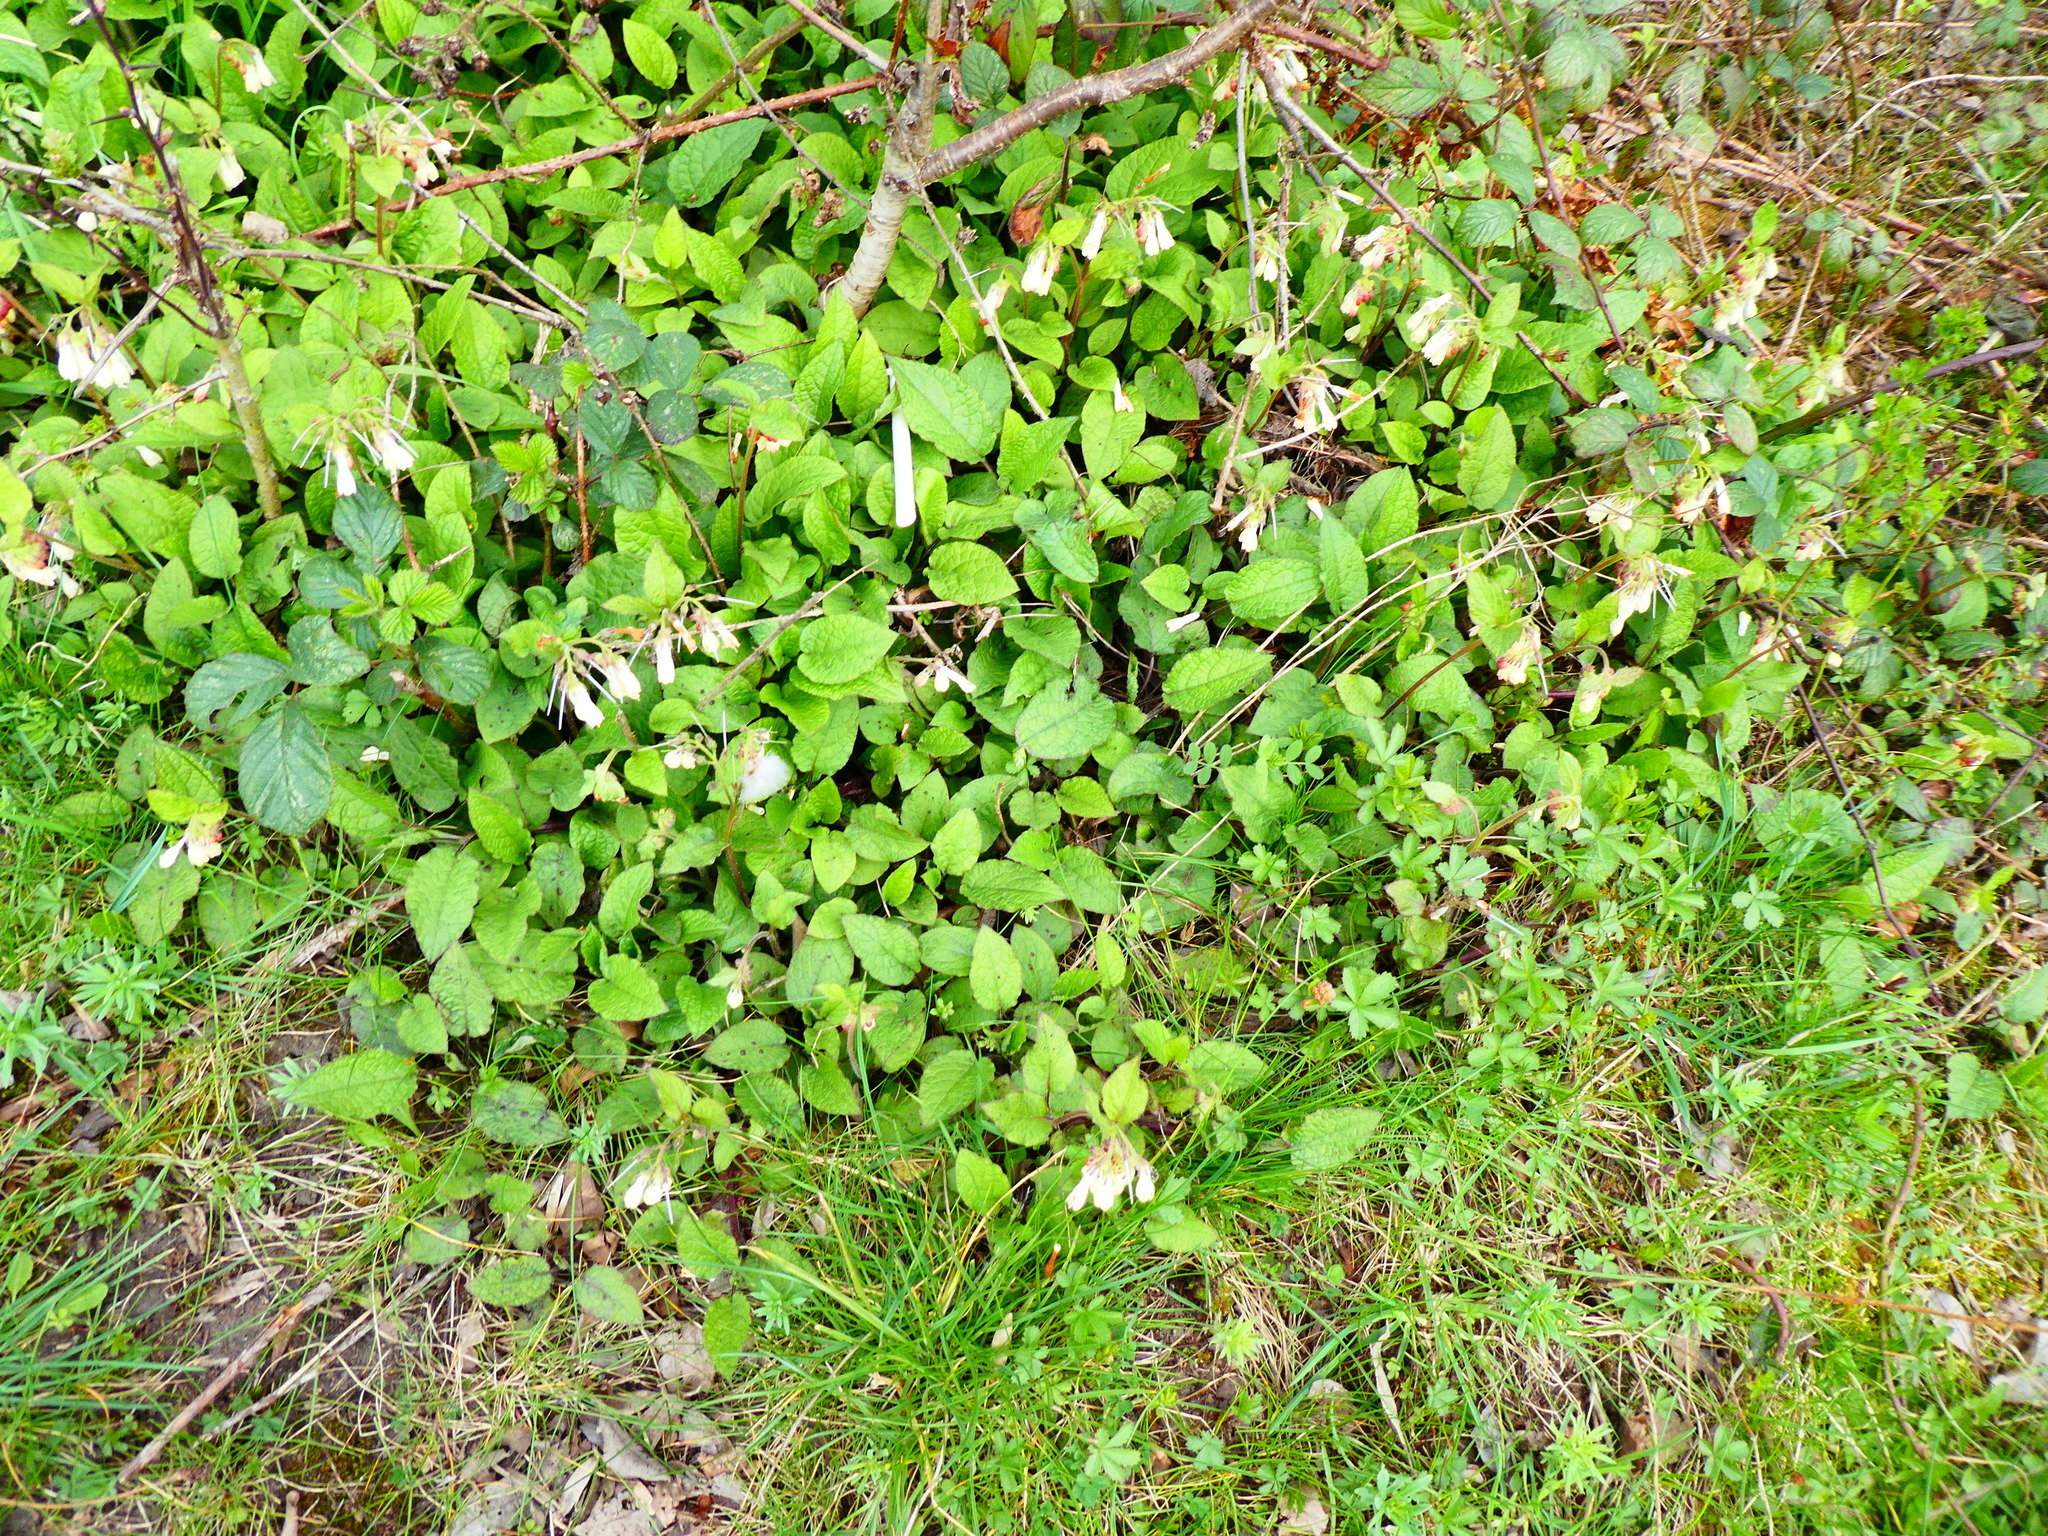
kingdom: Plantae
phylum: Tracheophyta
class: Magnoliopsida
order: Boraginales
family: Boraginaceae
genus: Symphytum
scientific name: Symphytum grandiflorum
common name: Creeping comfrey
